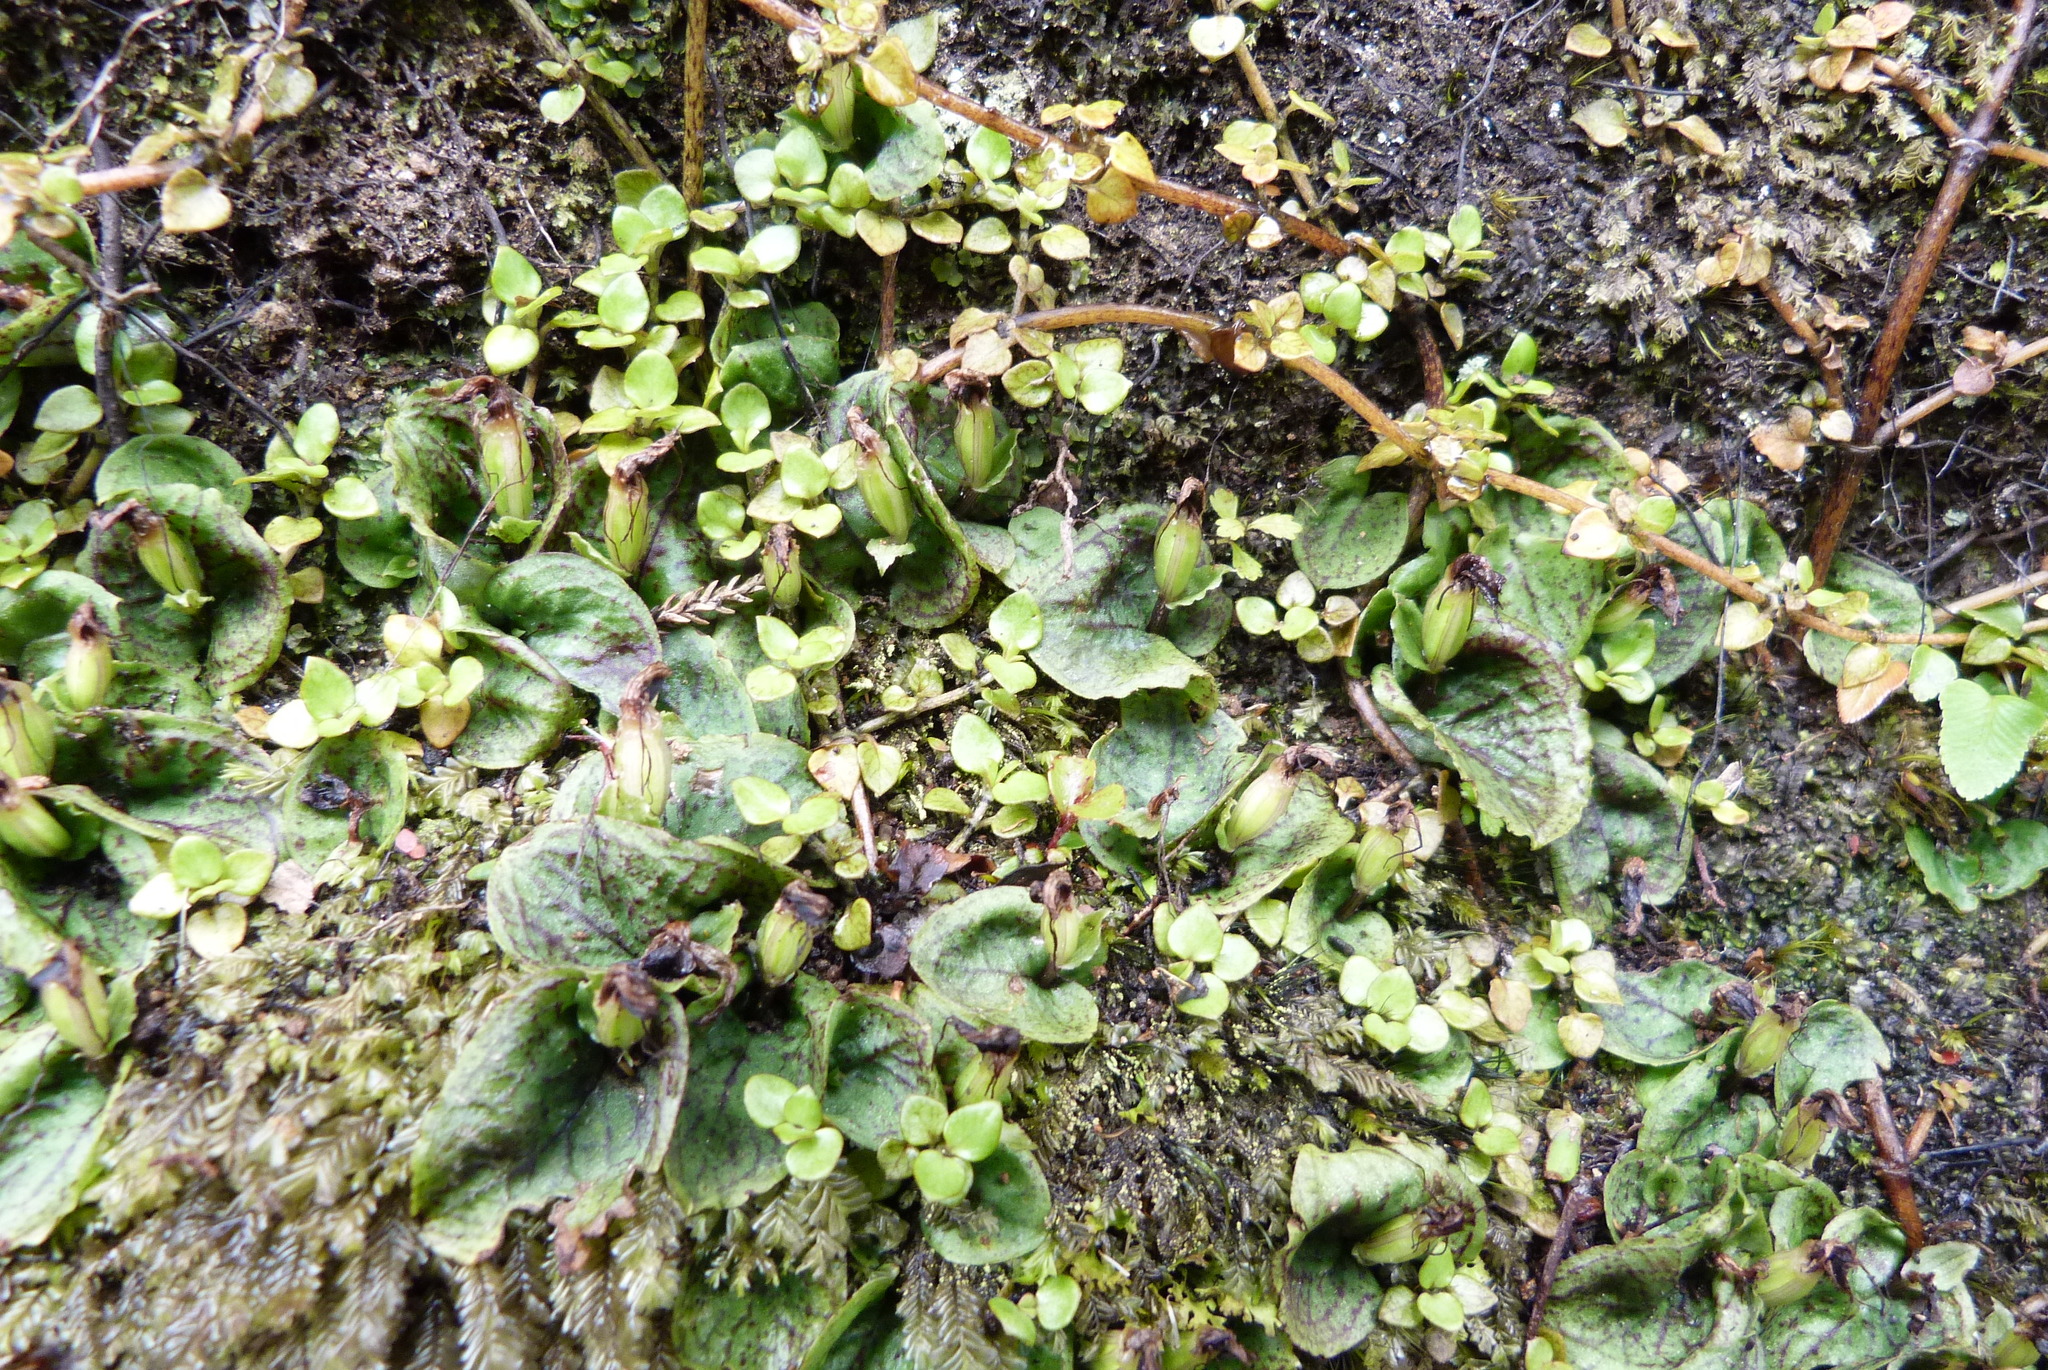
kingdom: Plantae
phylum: Tracheophyta
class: Liliopsida
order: Asparagales
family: Orchidaceae
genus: Corybas
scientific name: Corybas oblongus
